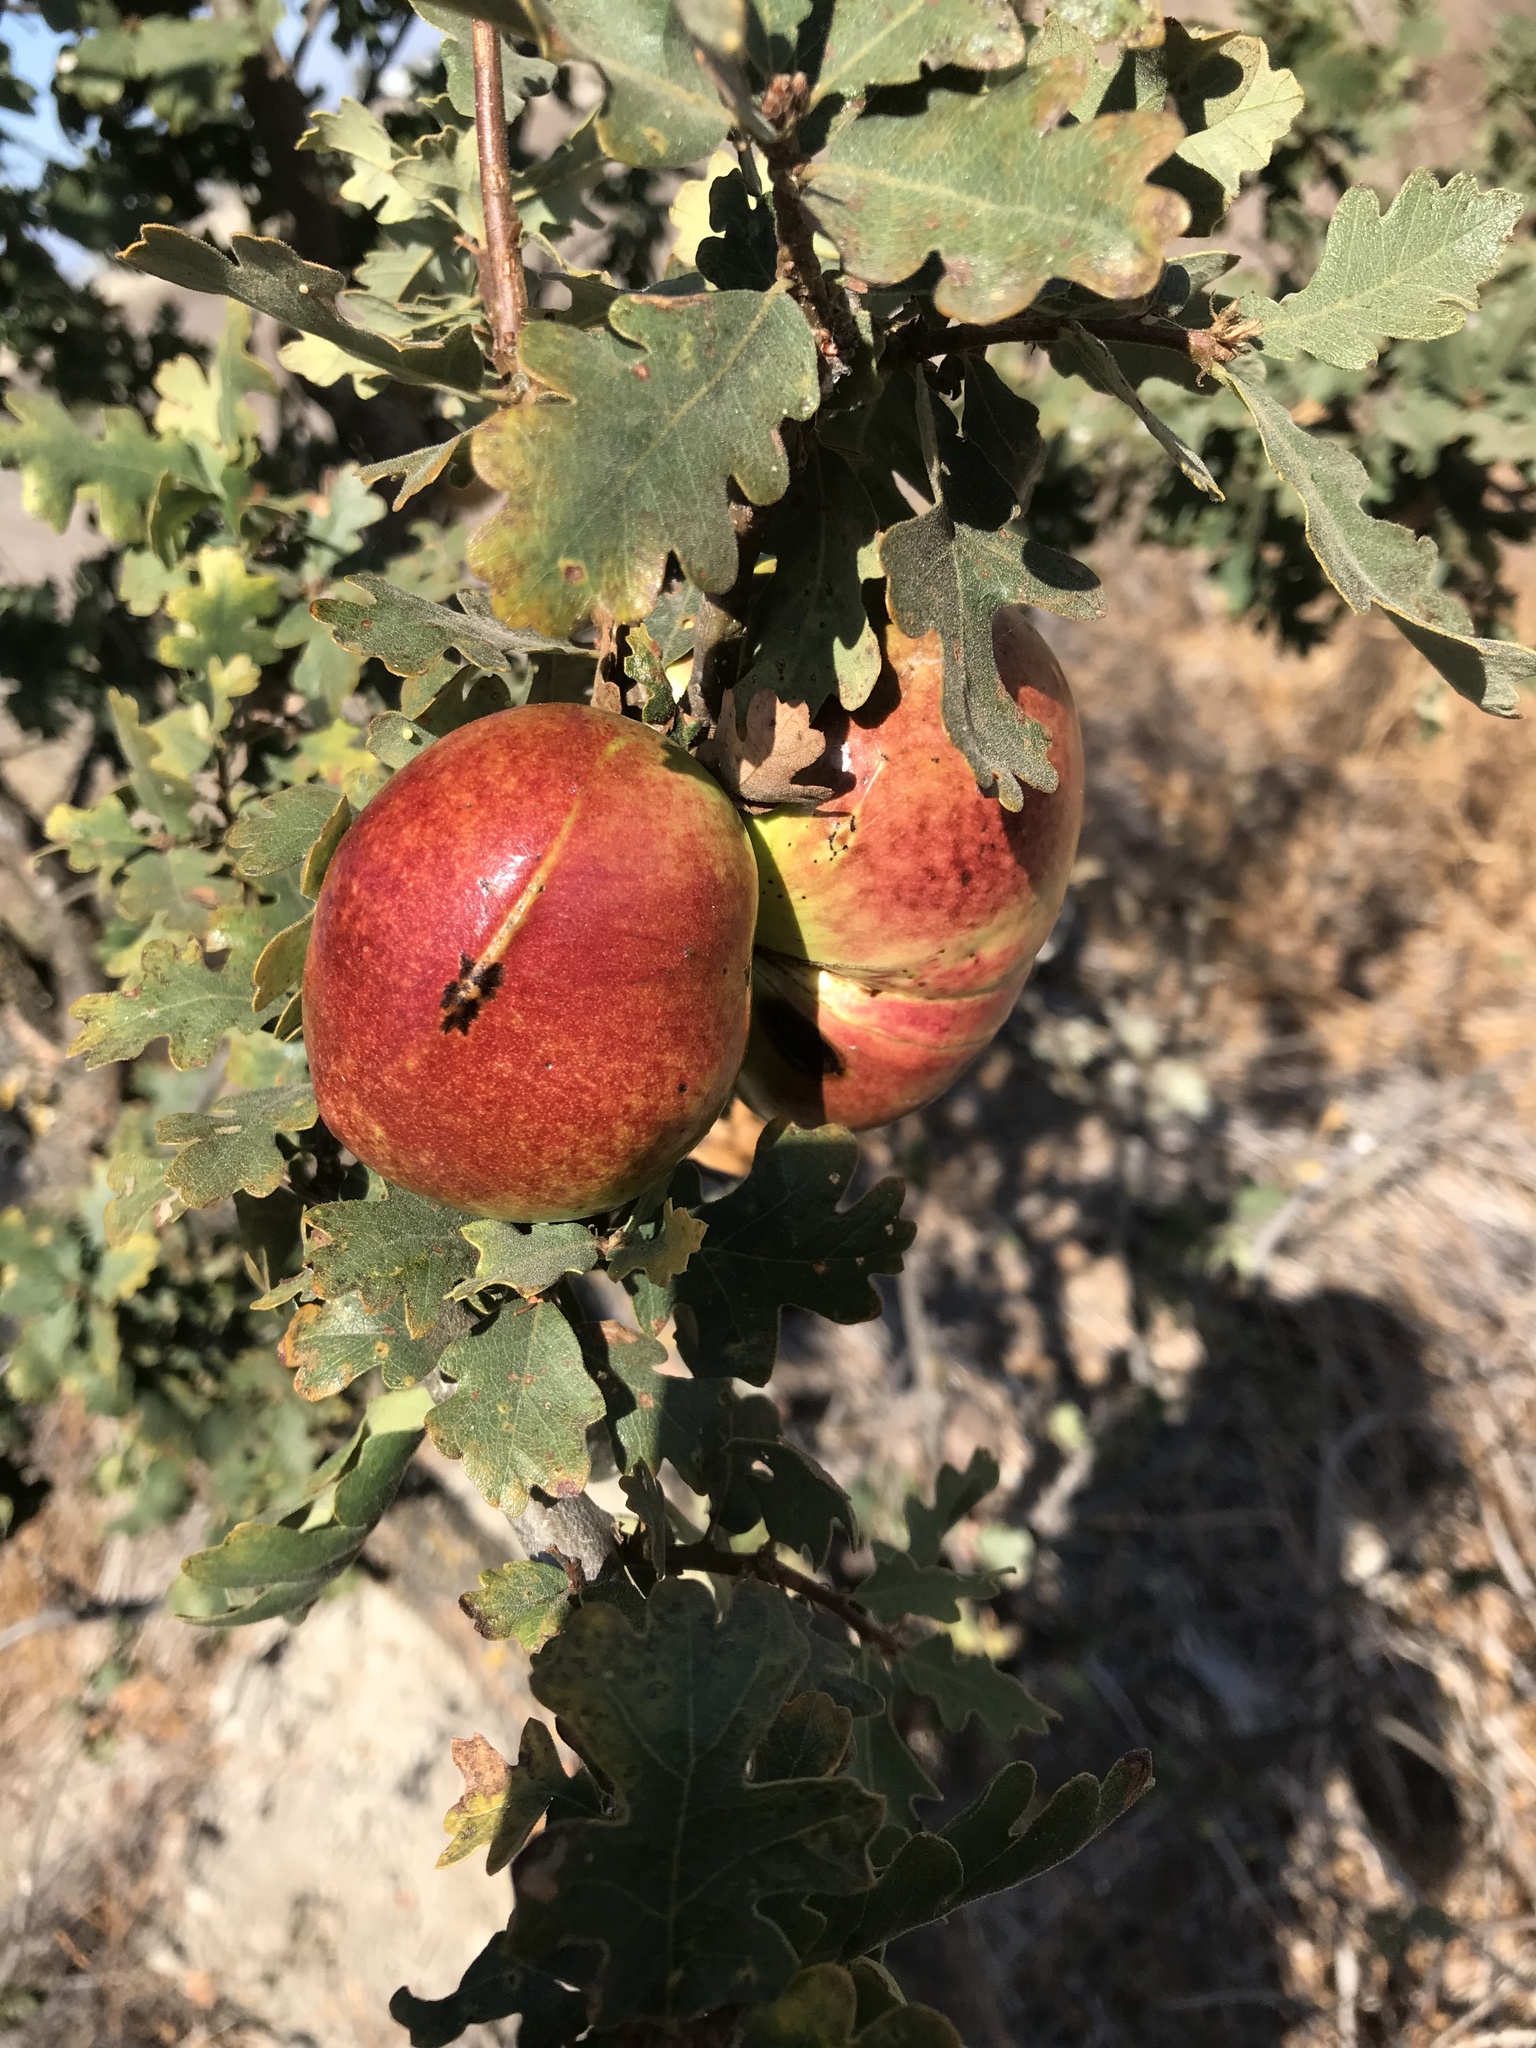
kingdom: Animalia
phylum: Arthropoda
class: Insecta
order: Hymenoptera
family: Cynipidae
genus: Andricus
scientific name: Andricus quercuscalifornicus
